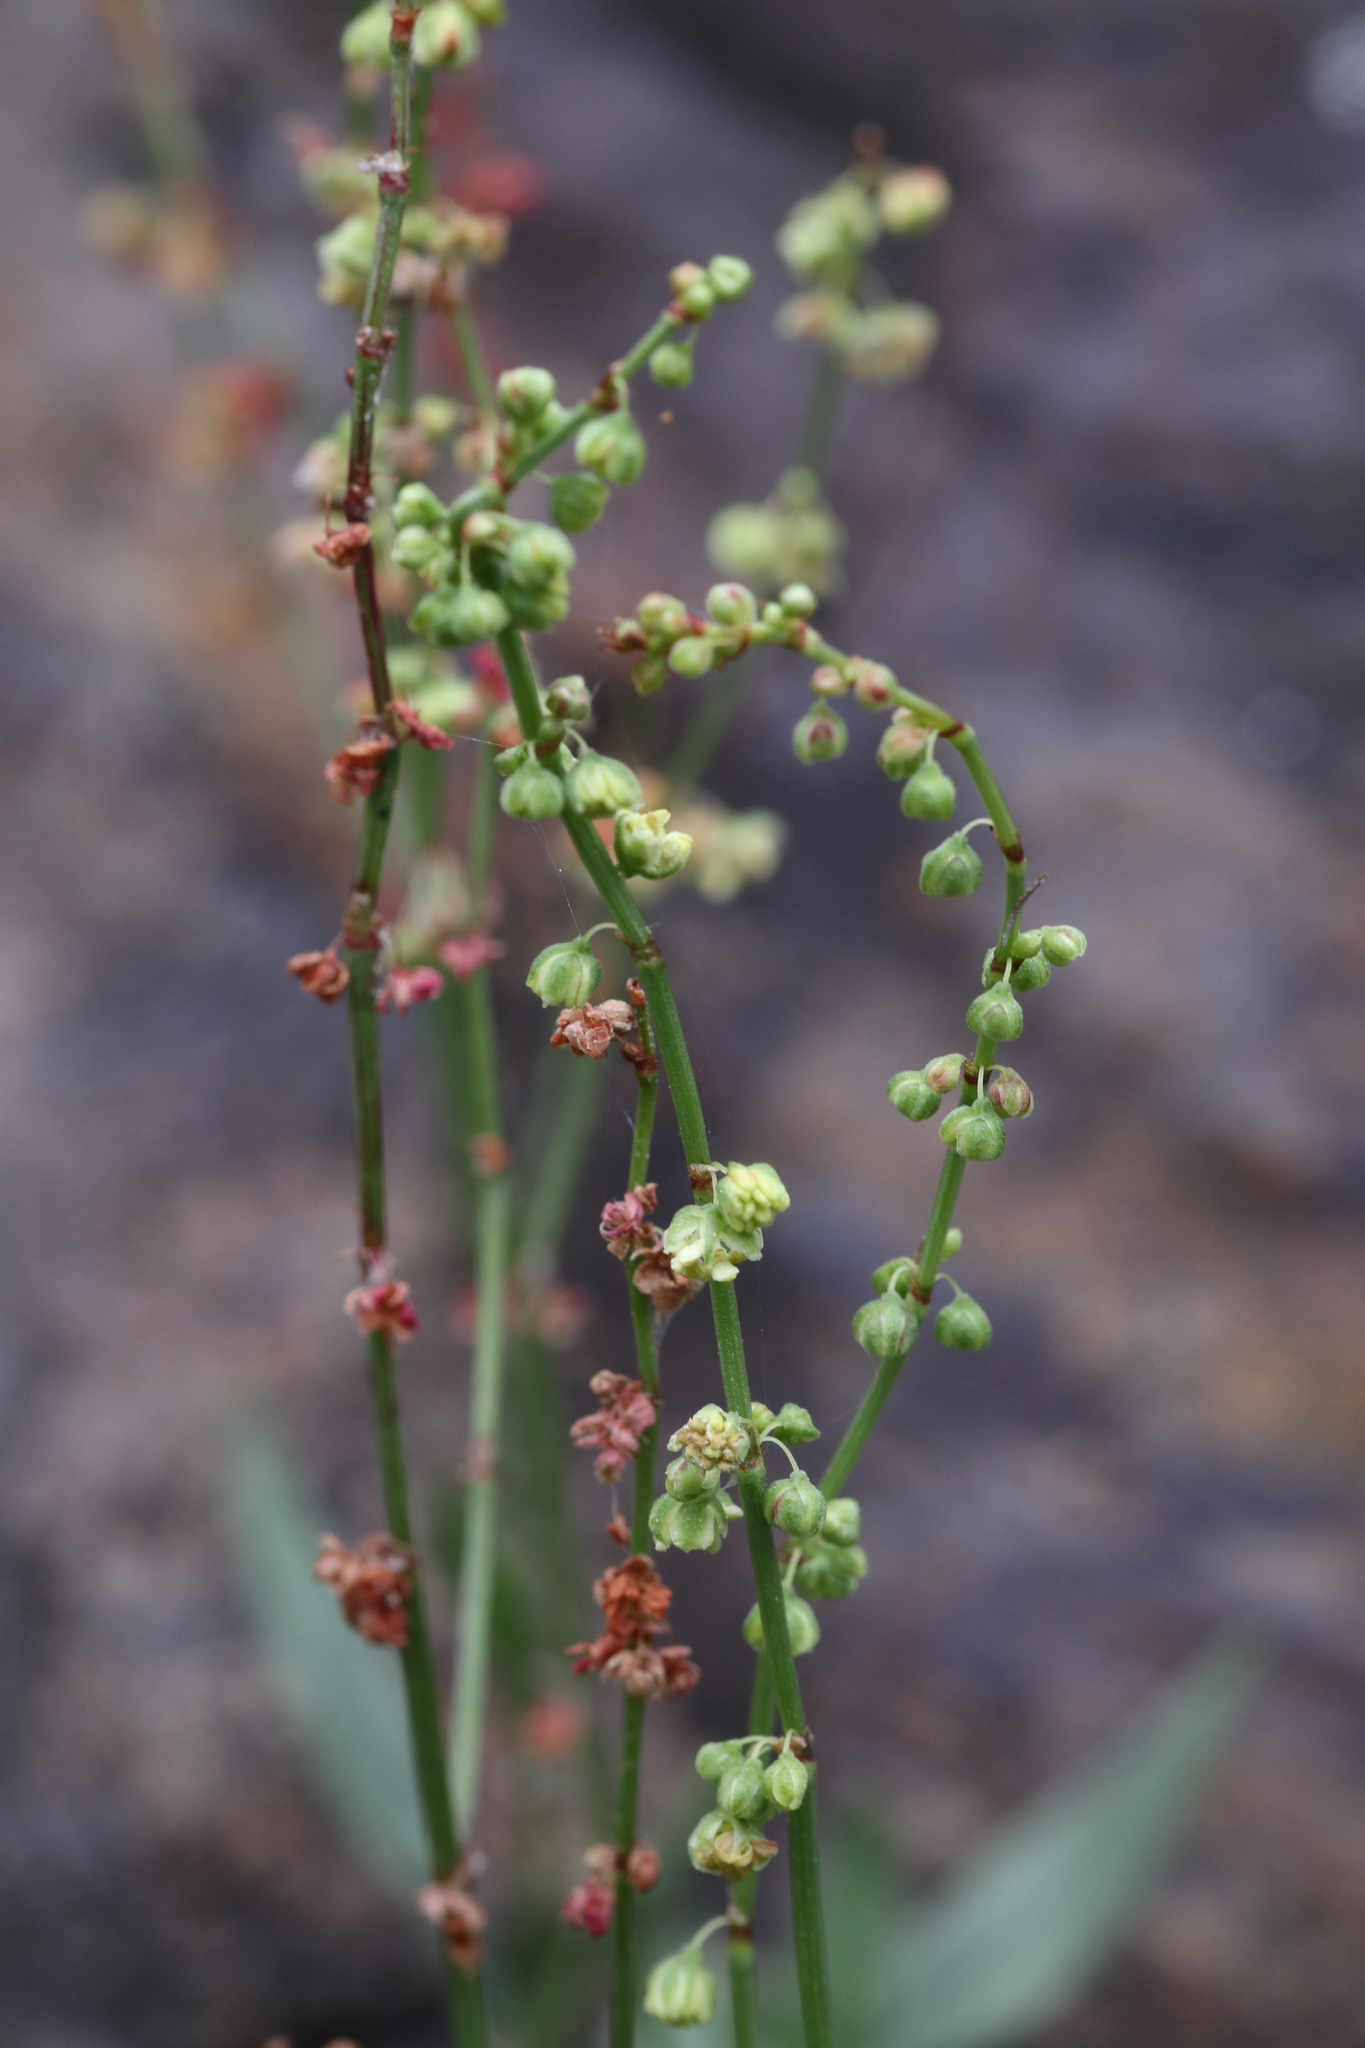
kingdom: Plantae
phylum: Tracheophyta
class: Magnoliopsida
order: Caryophyllales
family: Polygonaceae
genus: Rumex
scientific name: Rumex acetosella
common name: Common sheep sorrel
